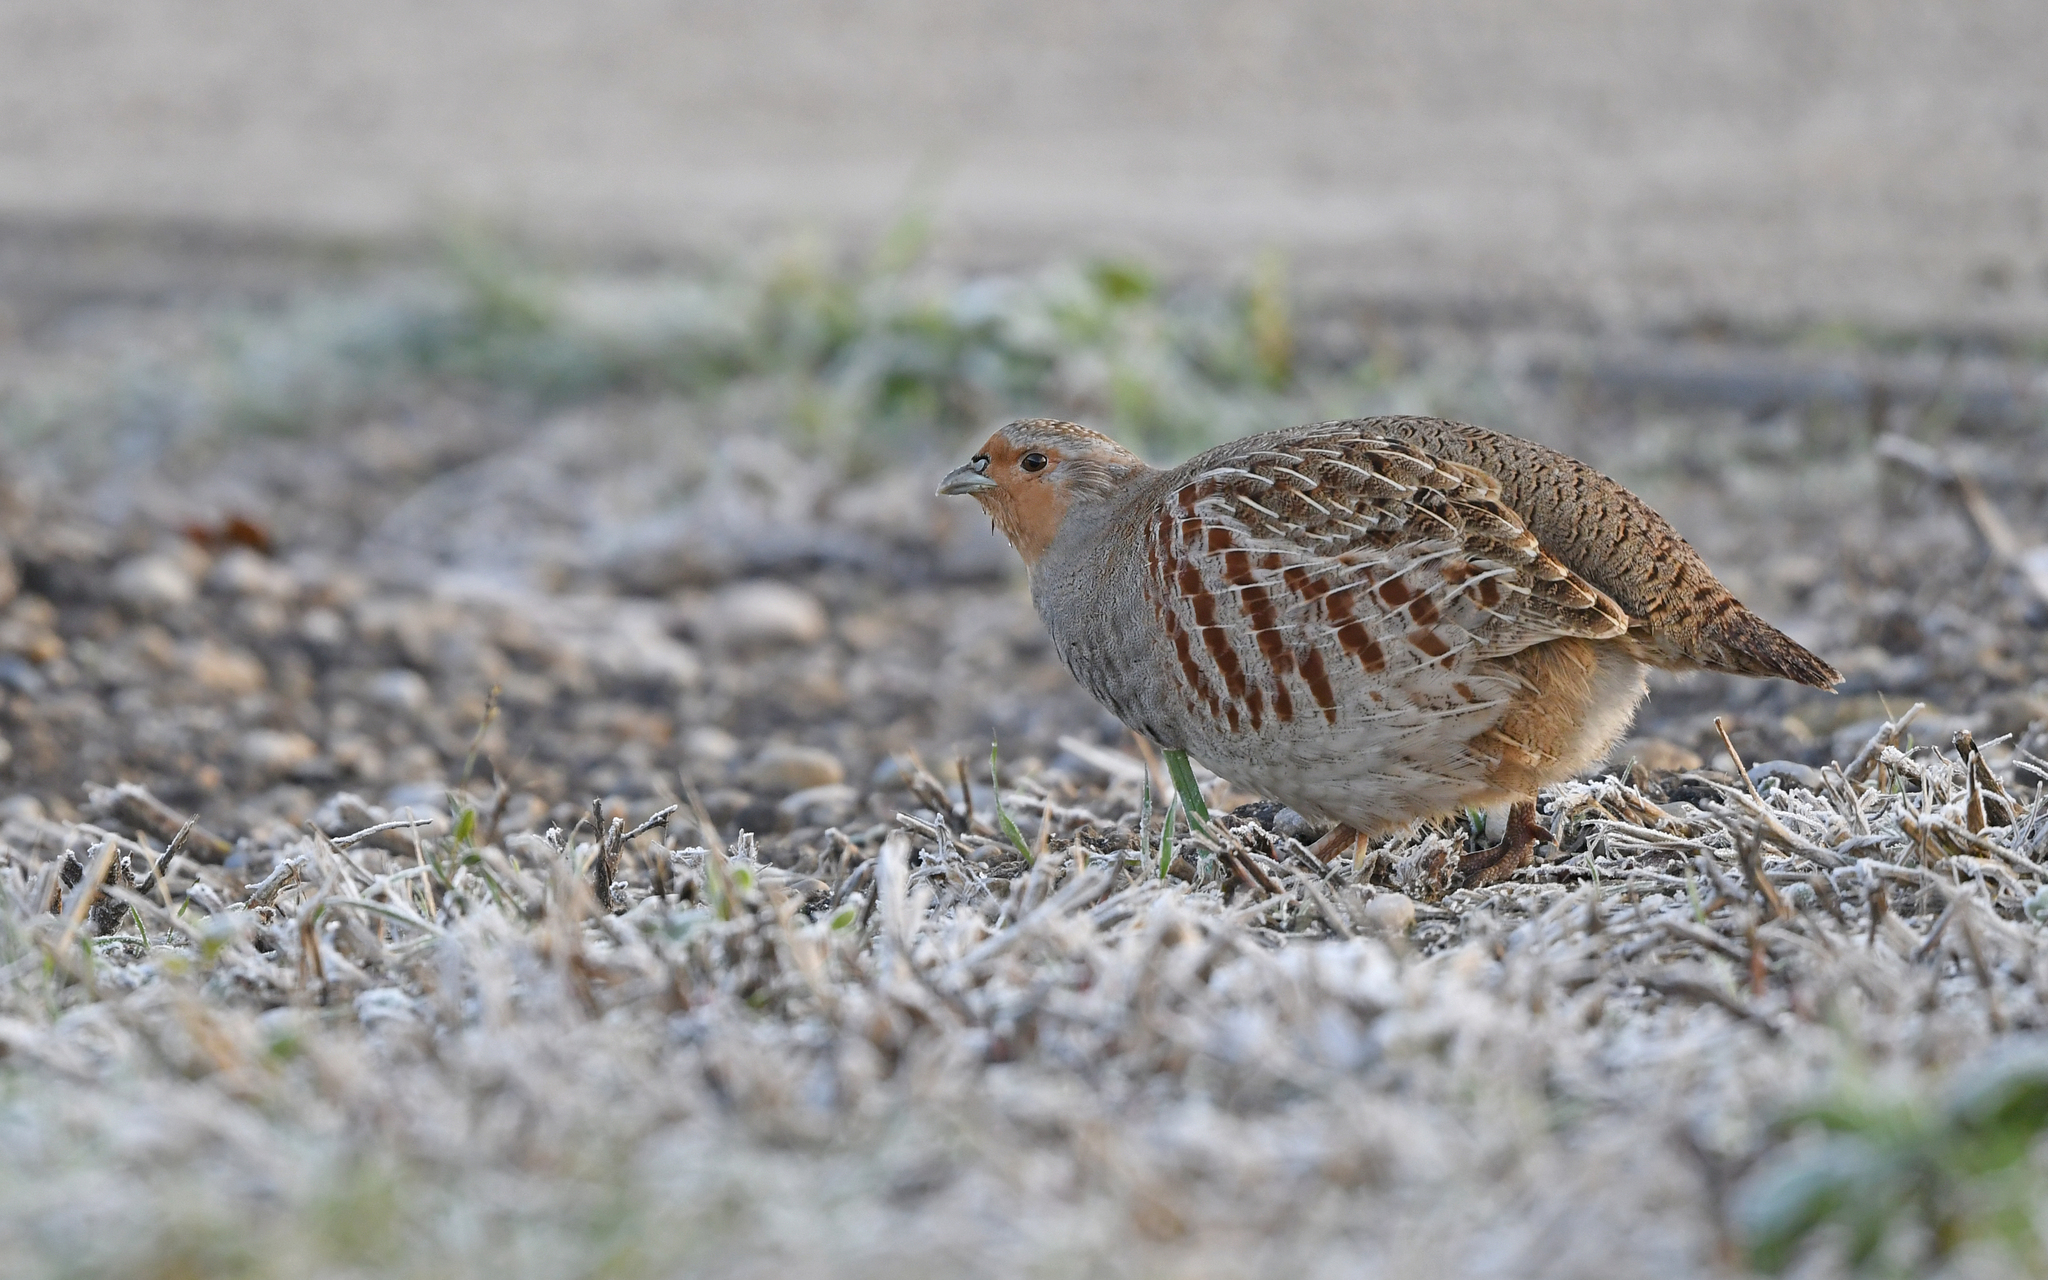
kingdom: Animalia
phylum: Chordata
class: Aves
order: Galliformes
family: Phasianidae
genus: Perdix
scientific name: Perdix perdix
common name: Grey partridge
